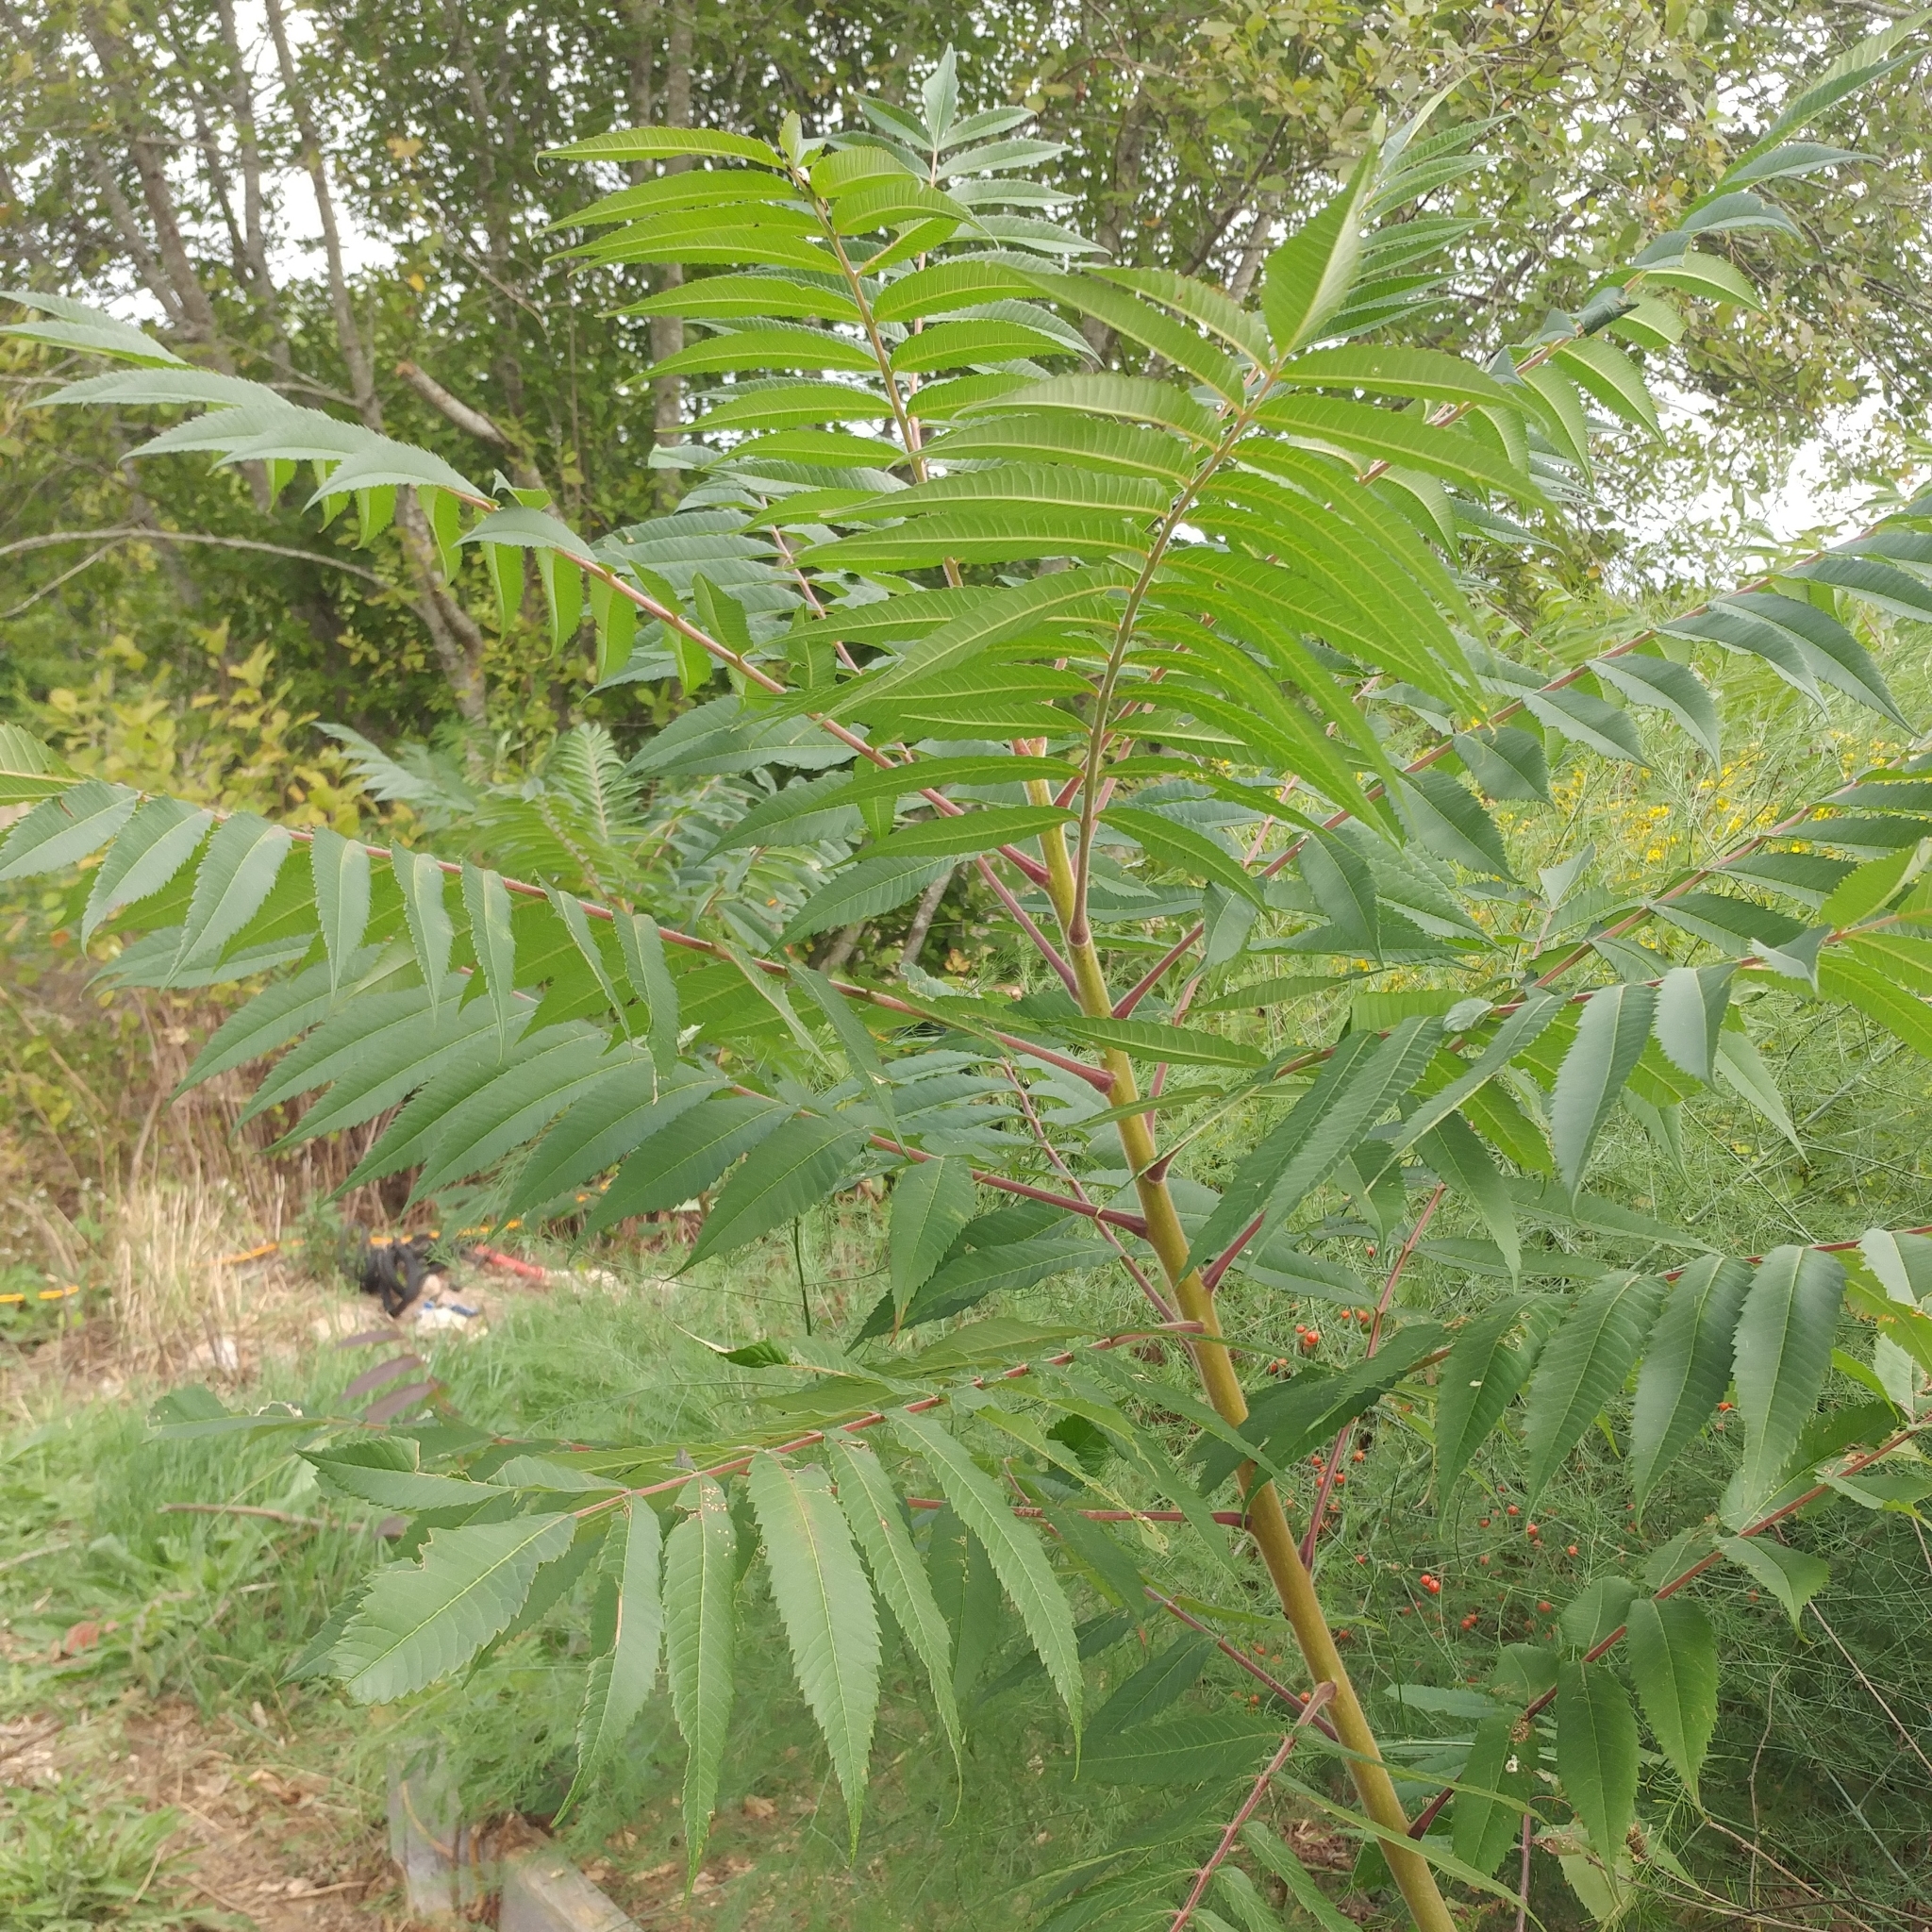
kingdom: Plantae
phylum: Tracheophyta
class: Magnoliopsida
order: Sapindales
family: Anacardiaceae
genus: Rhus
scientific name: Rhus typhina
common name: Staghorn sumac
